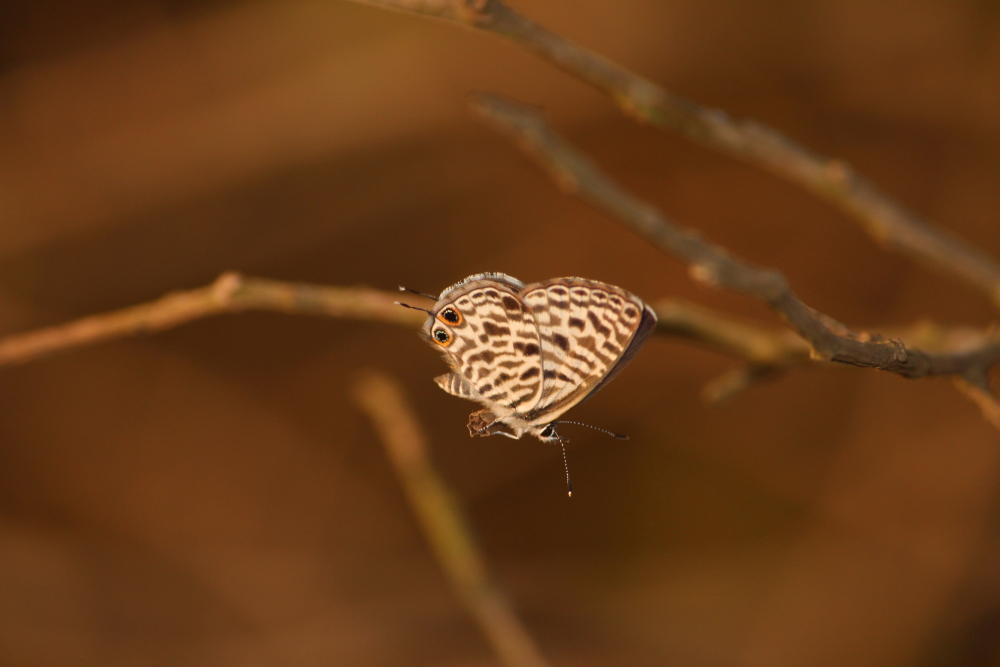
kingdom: Animalia
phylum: Arthropoda
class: Insecta
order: Lepidoptera
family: Lycaenidae
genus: Leptotes
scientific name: Leptotes
